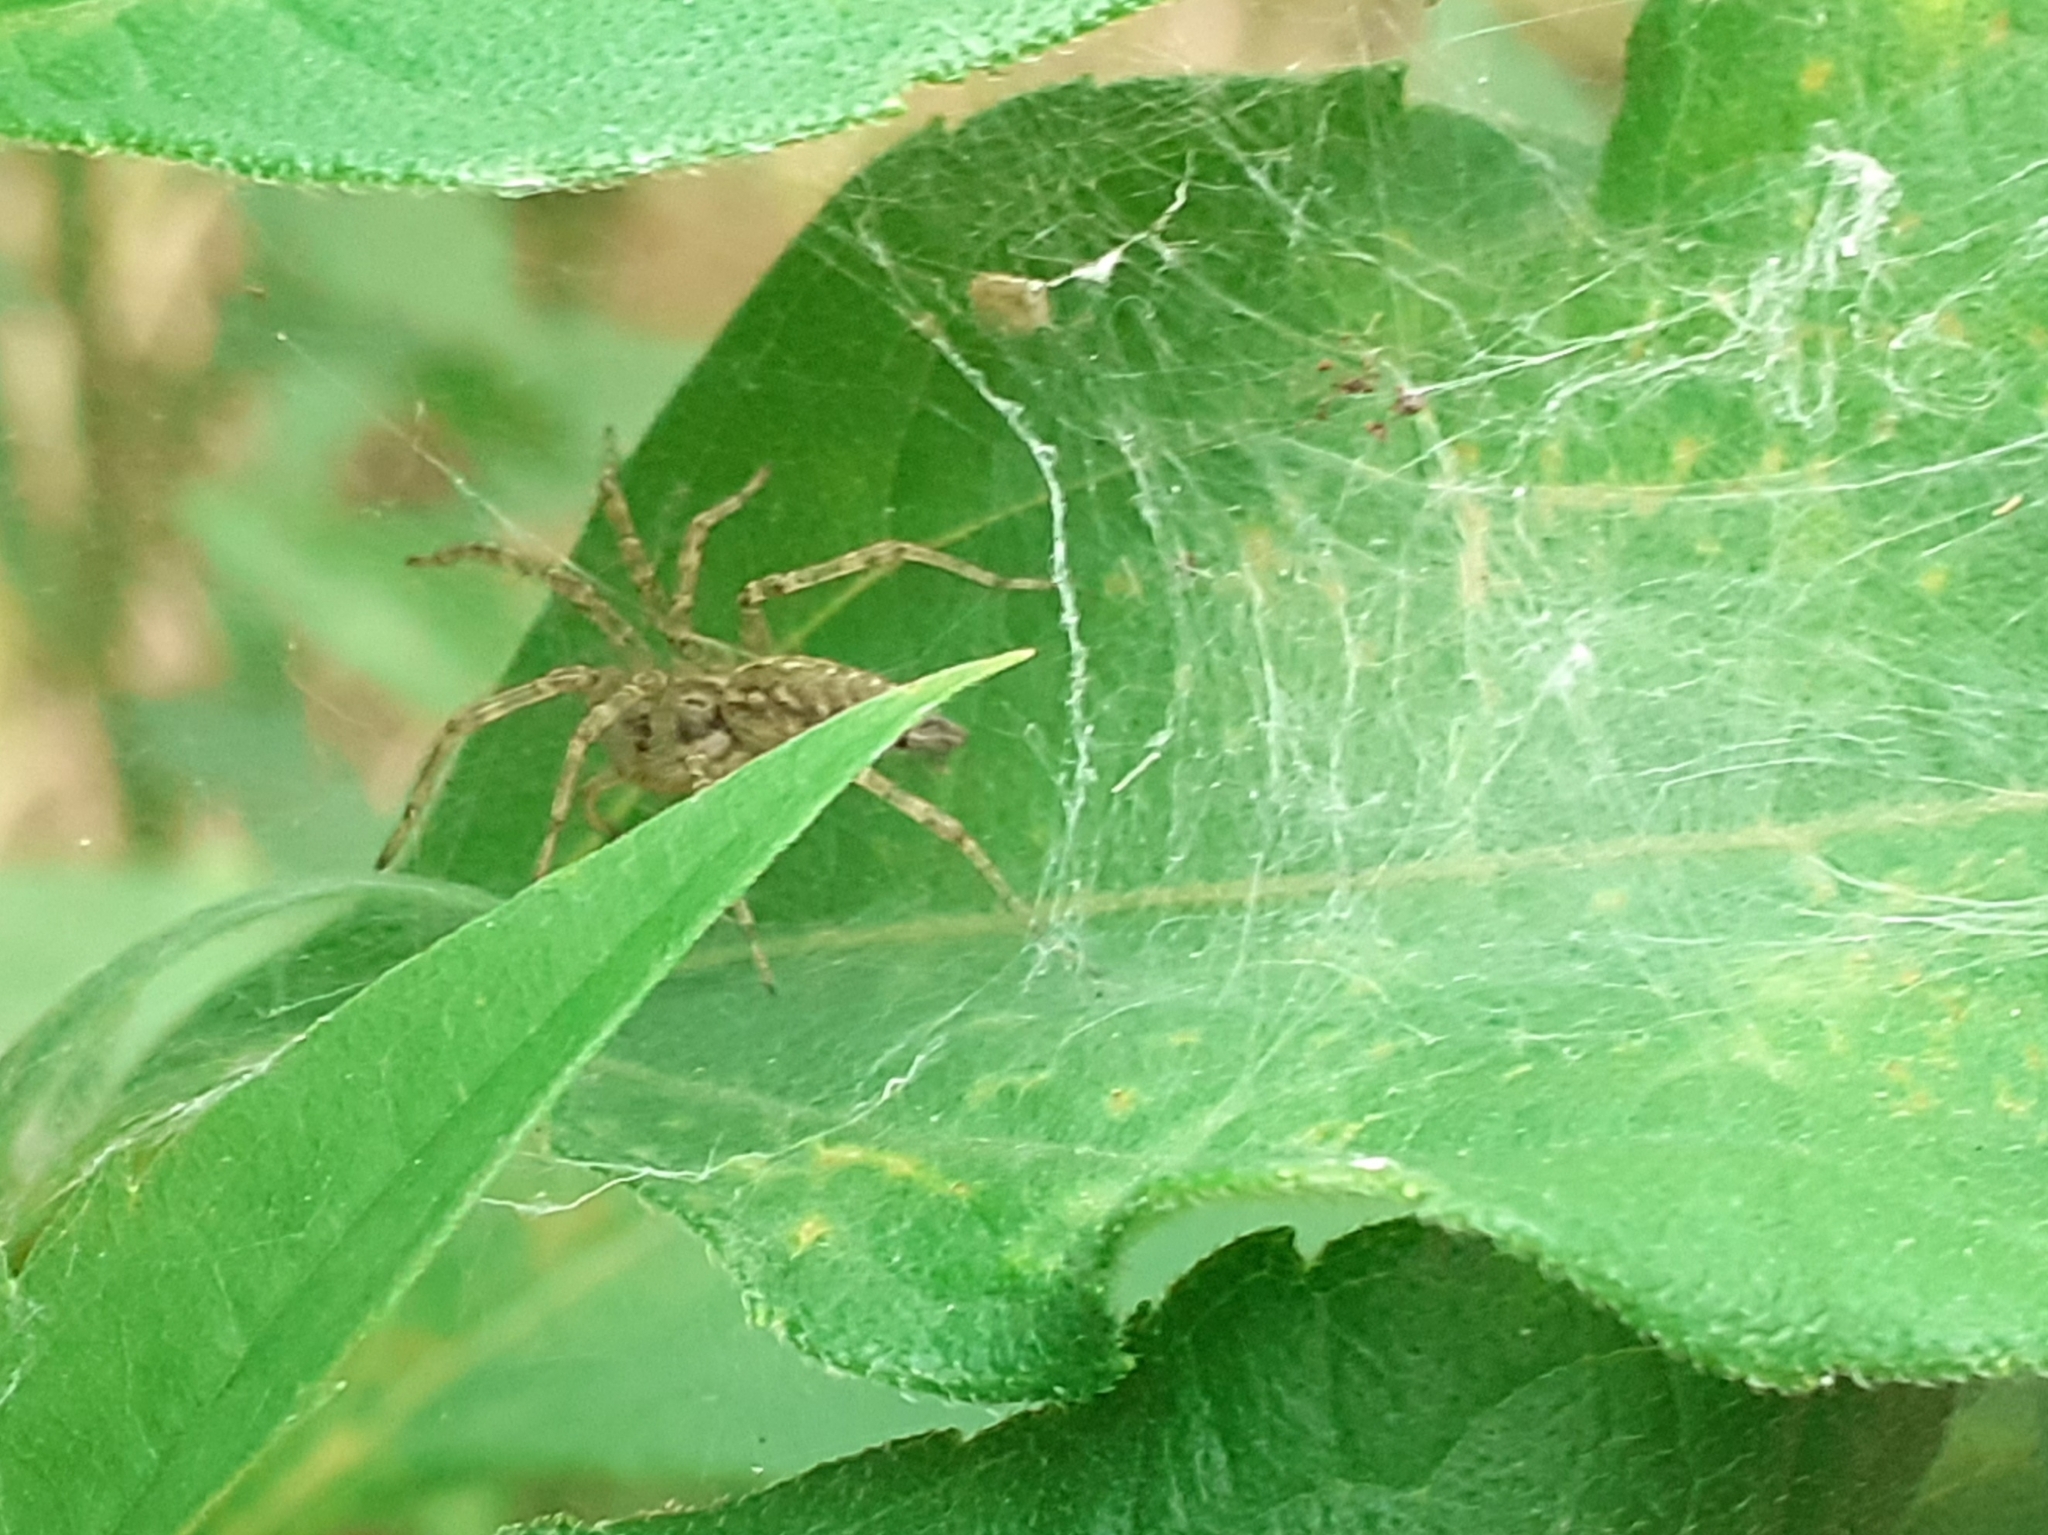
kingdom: Animalia
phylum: Arthropoda
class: Arachnida
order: Araneae
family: Agelenidae
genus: Allagelena
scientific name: Allagelena gracilens
